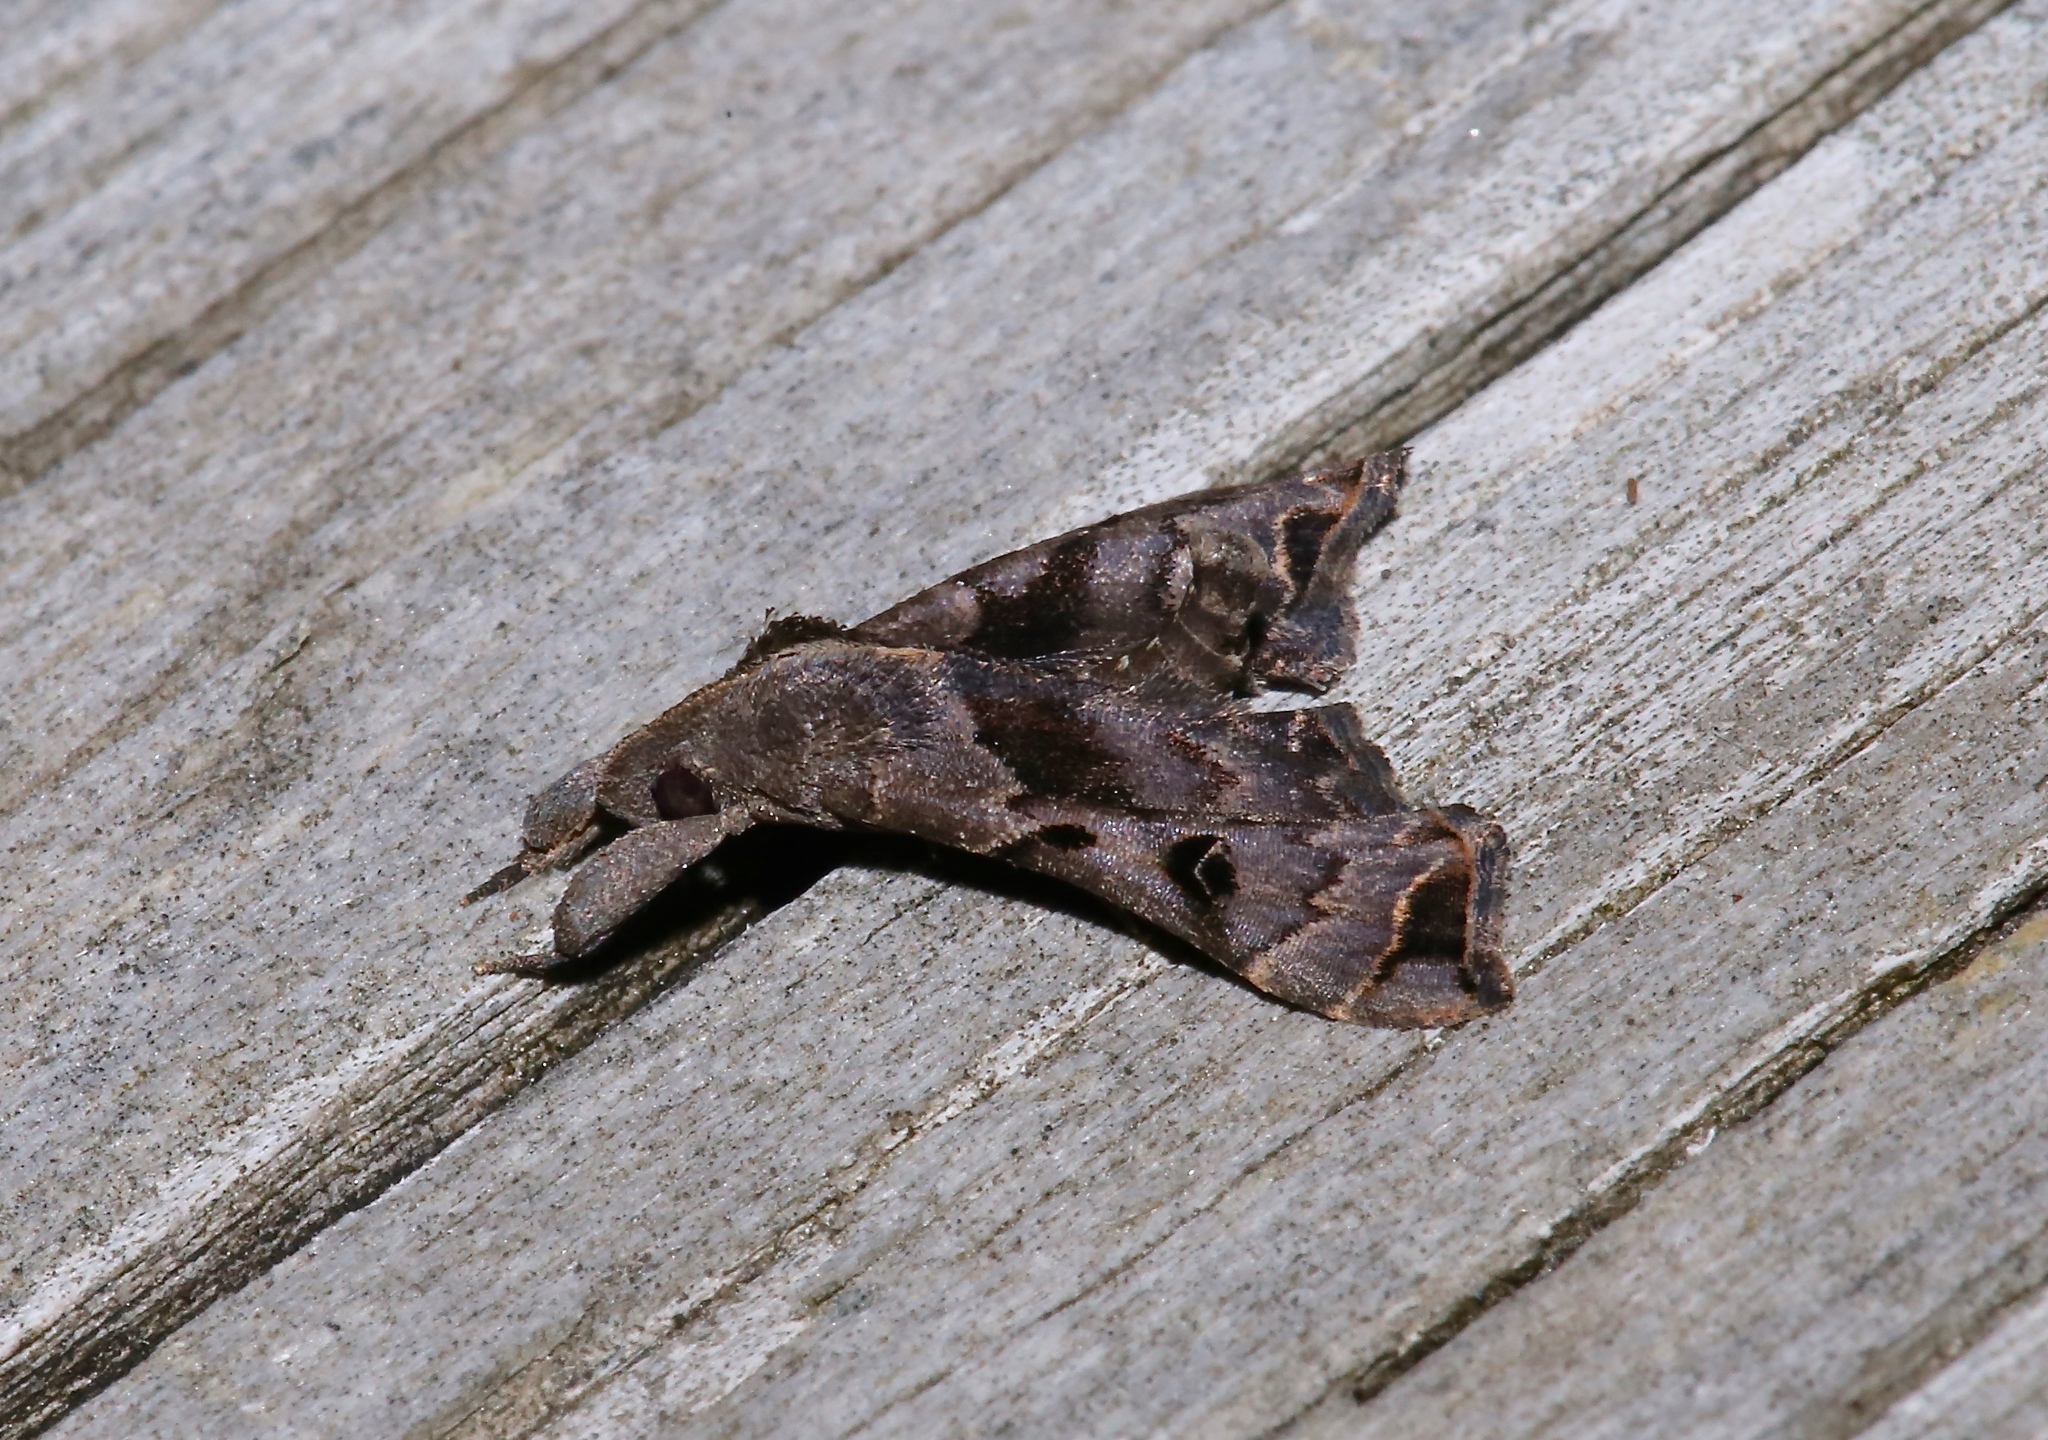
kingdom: Animalia
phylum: Arthropoda
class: Insecta
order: Lepidoptera
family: Erebidae
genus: Palthis
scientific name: Palthis asopialis
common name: Faint-spotted palthis moth
